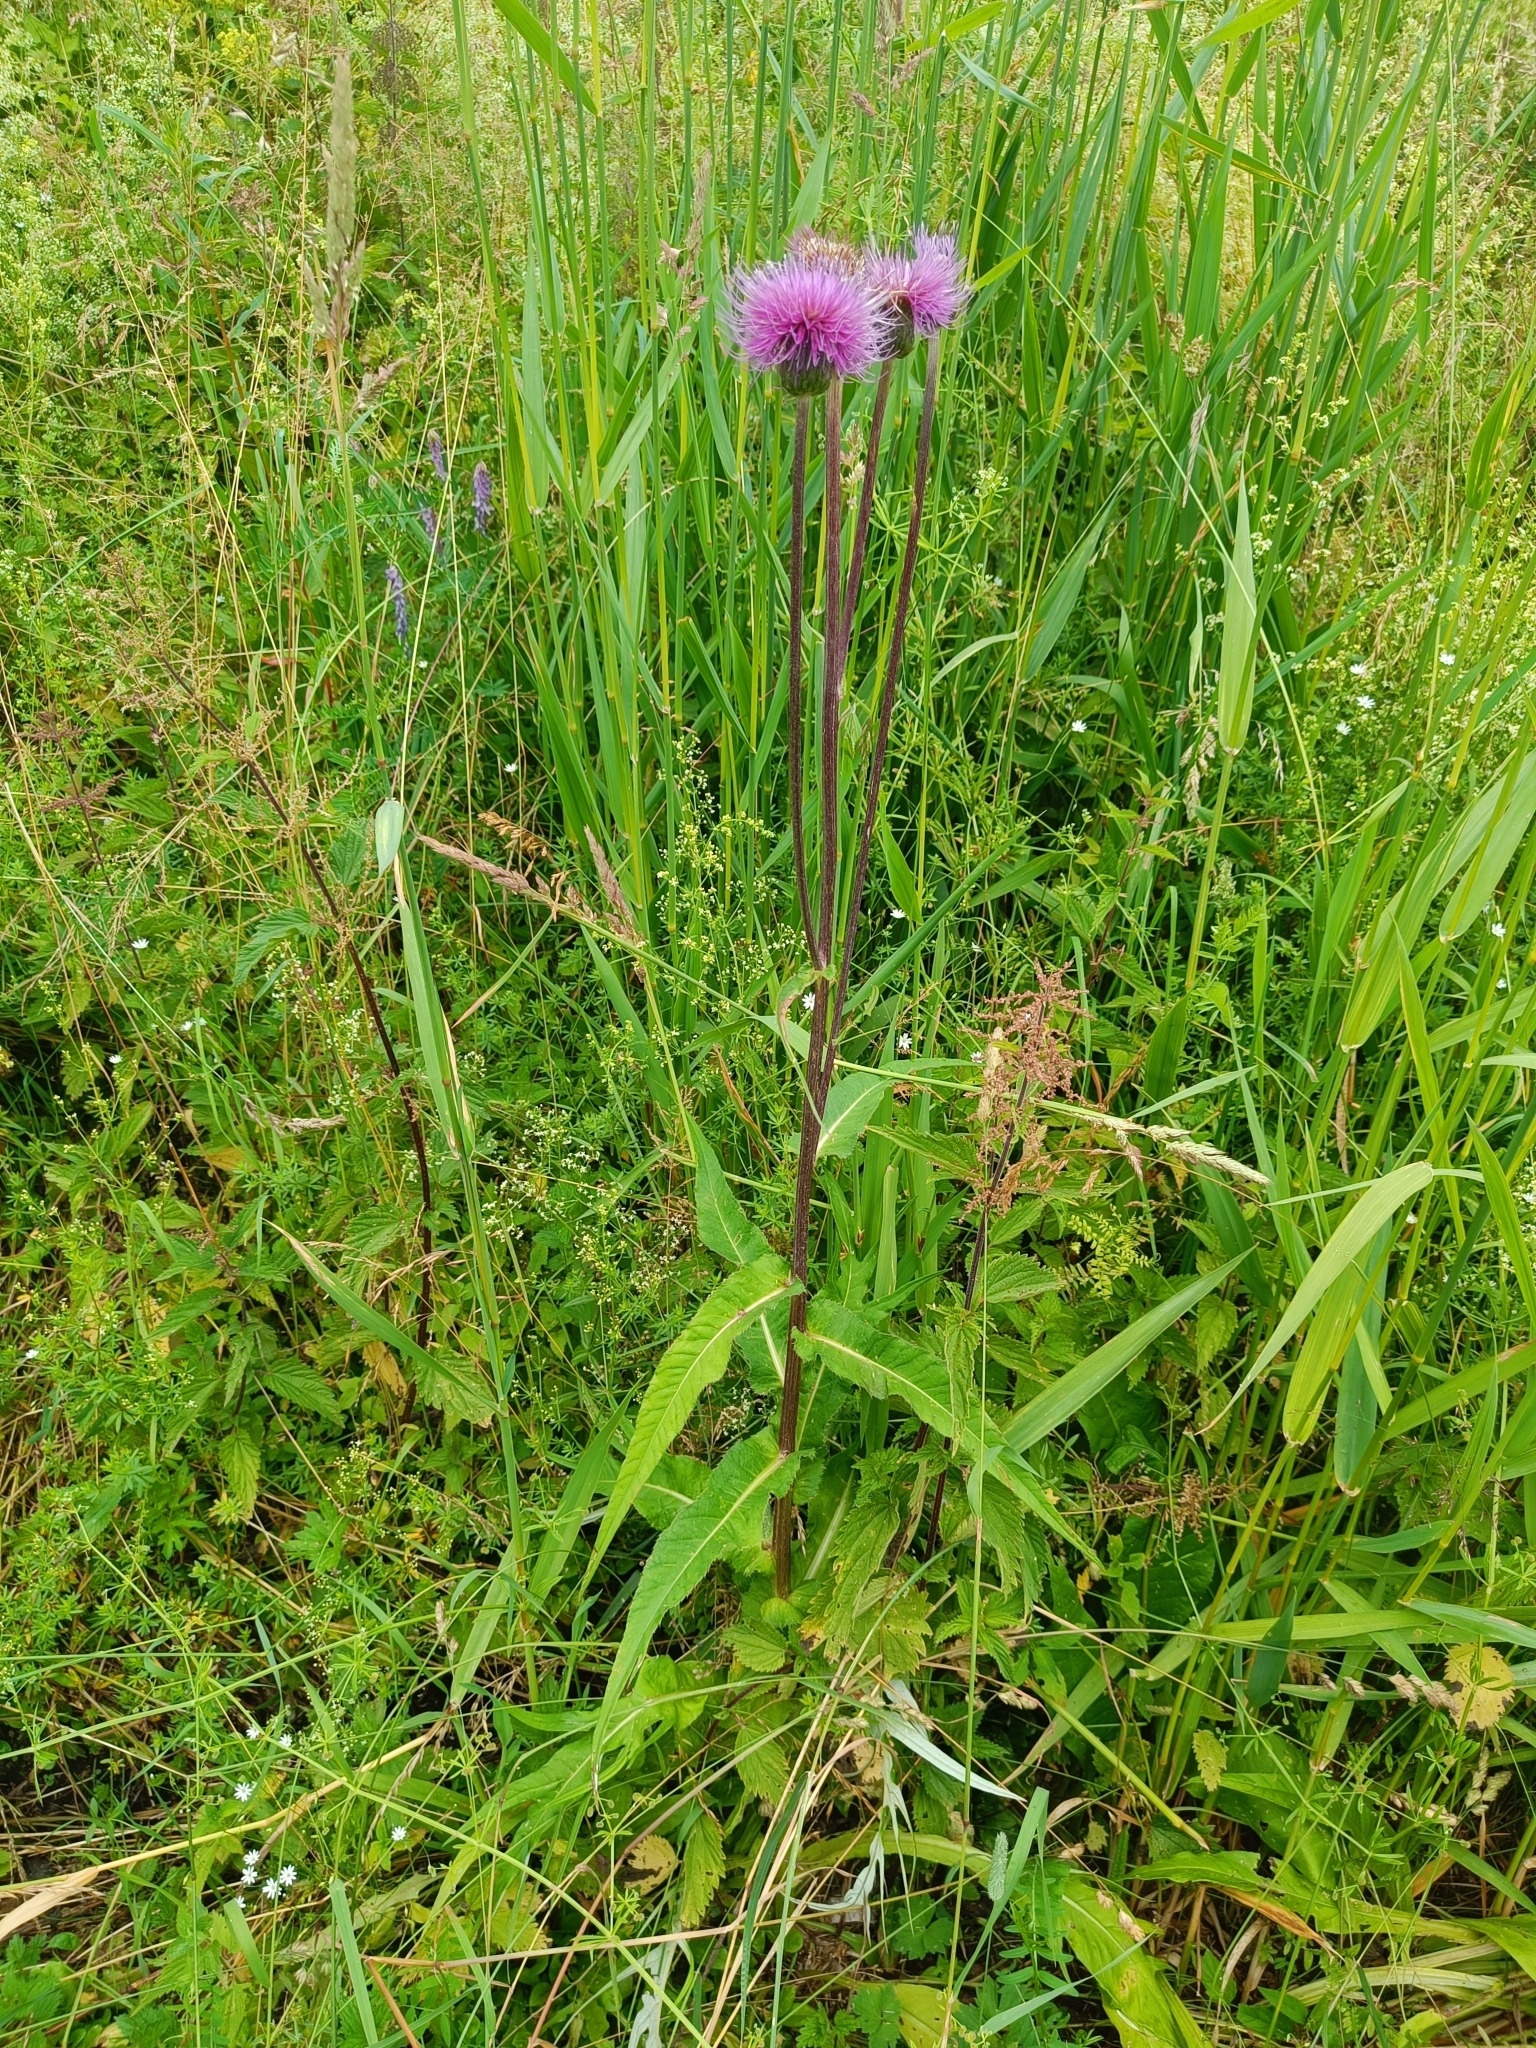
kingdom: Plantae
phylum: Tracheophyta
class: Magnoliopsida
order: Asterales
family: Asteraceae
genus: Cirsium
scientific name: Cirsium heterophyllum
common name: Melancholy thistle
